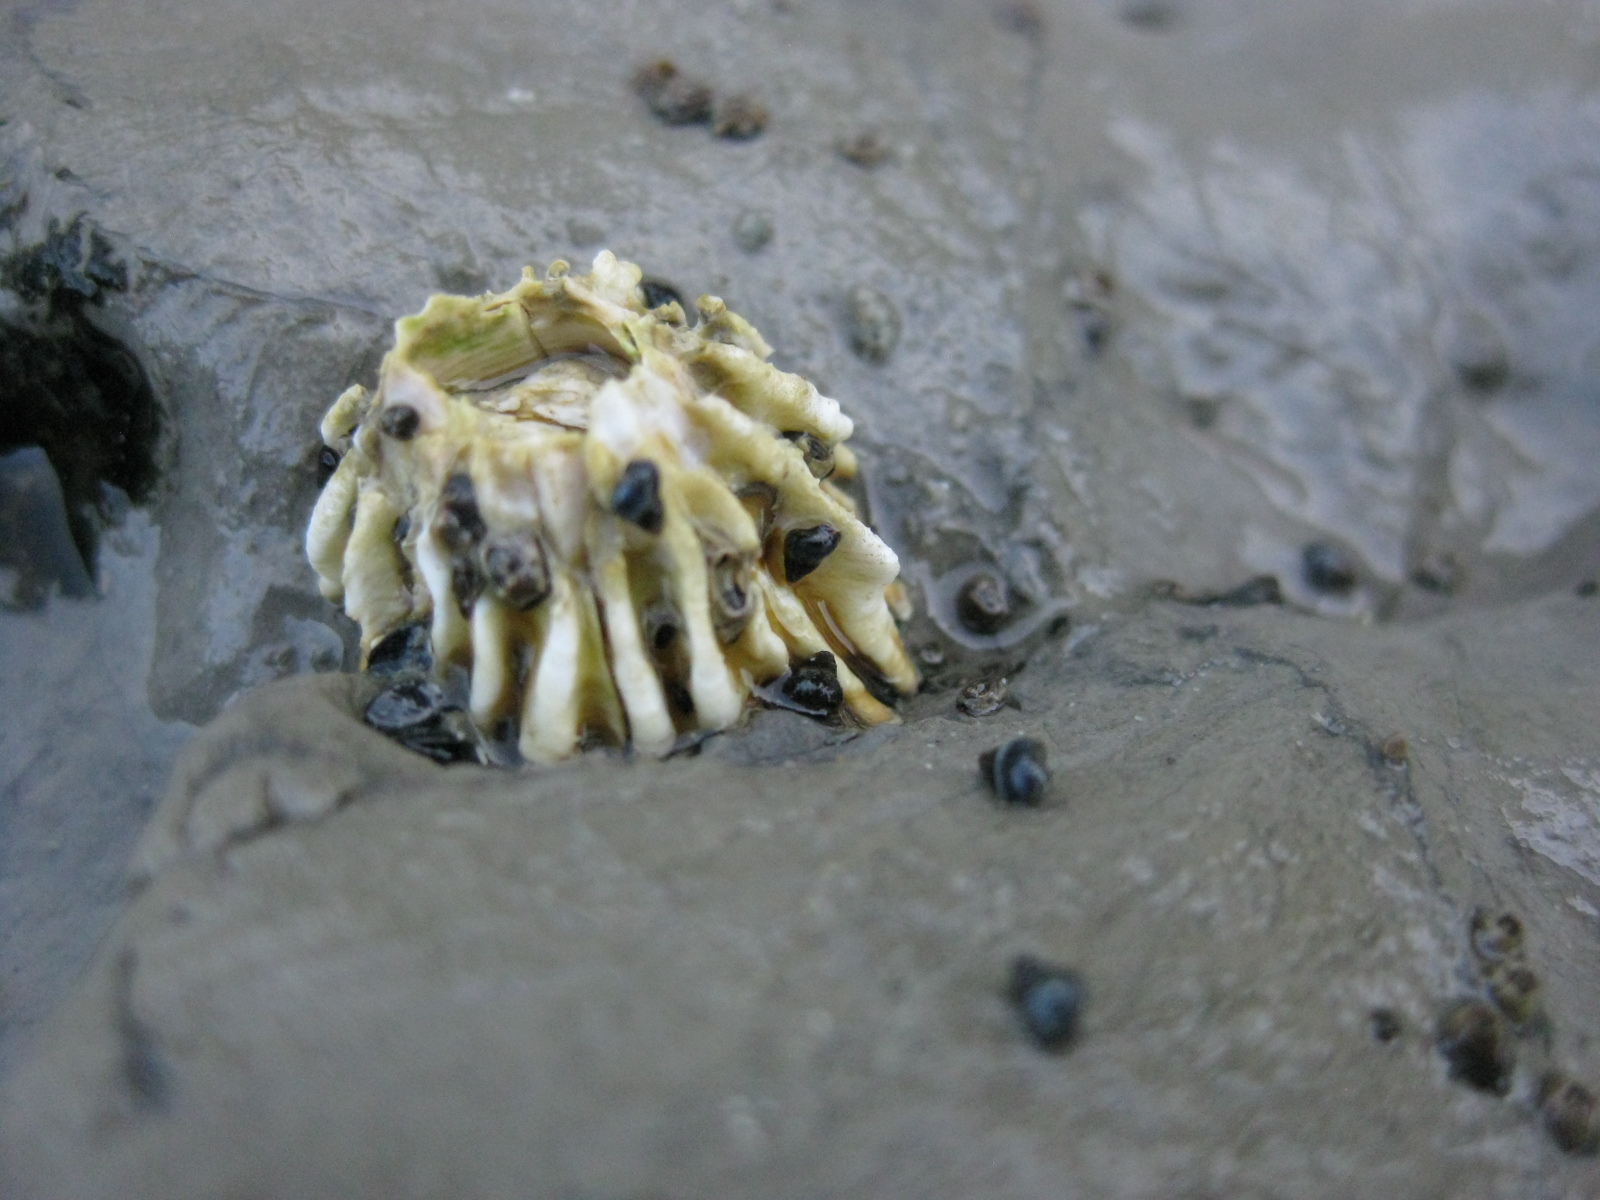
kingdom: Animalia
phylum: Arthropoda
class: Maxillopoda
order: Sessilia
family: Tetraclitidae
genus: Epopella
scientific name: Epopella plicata
